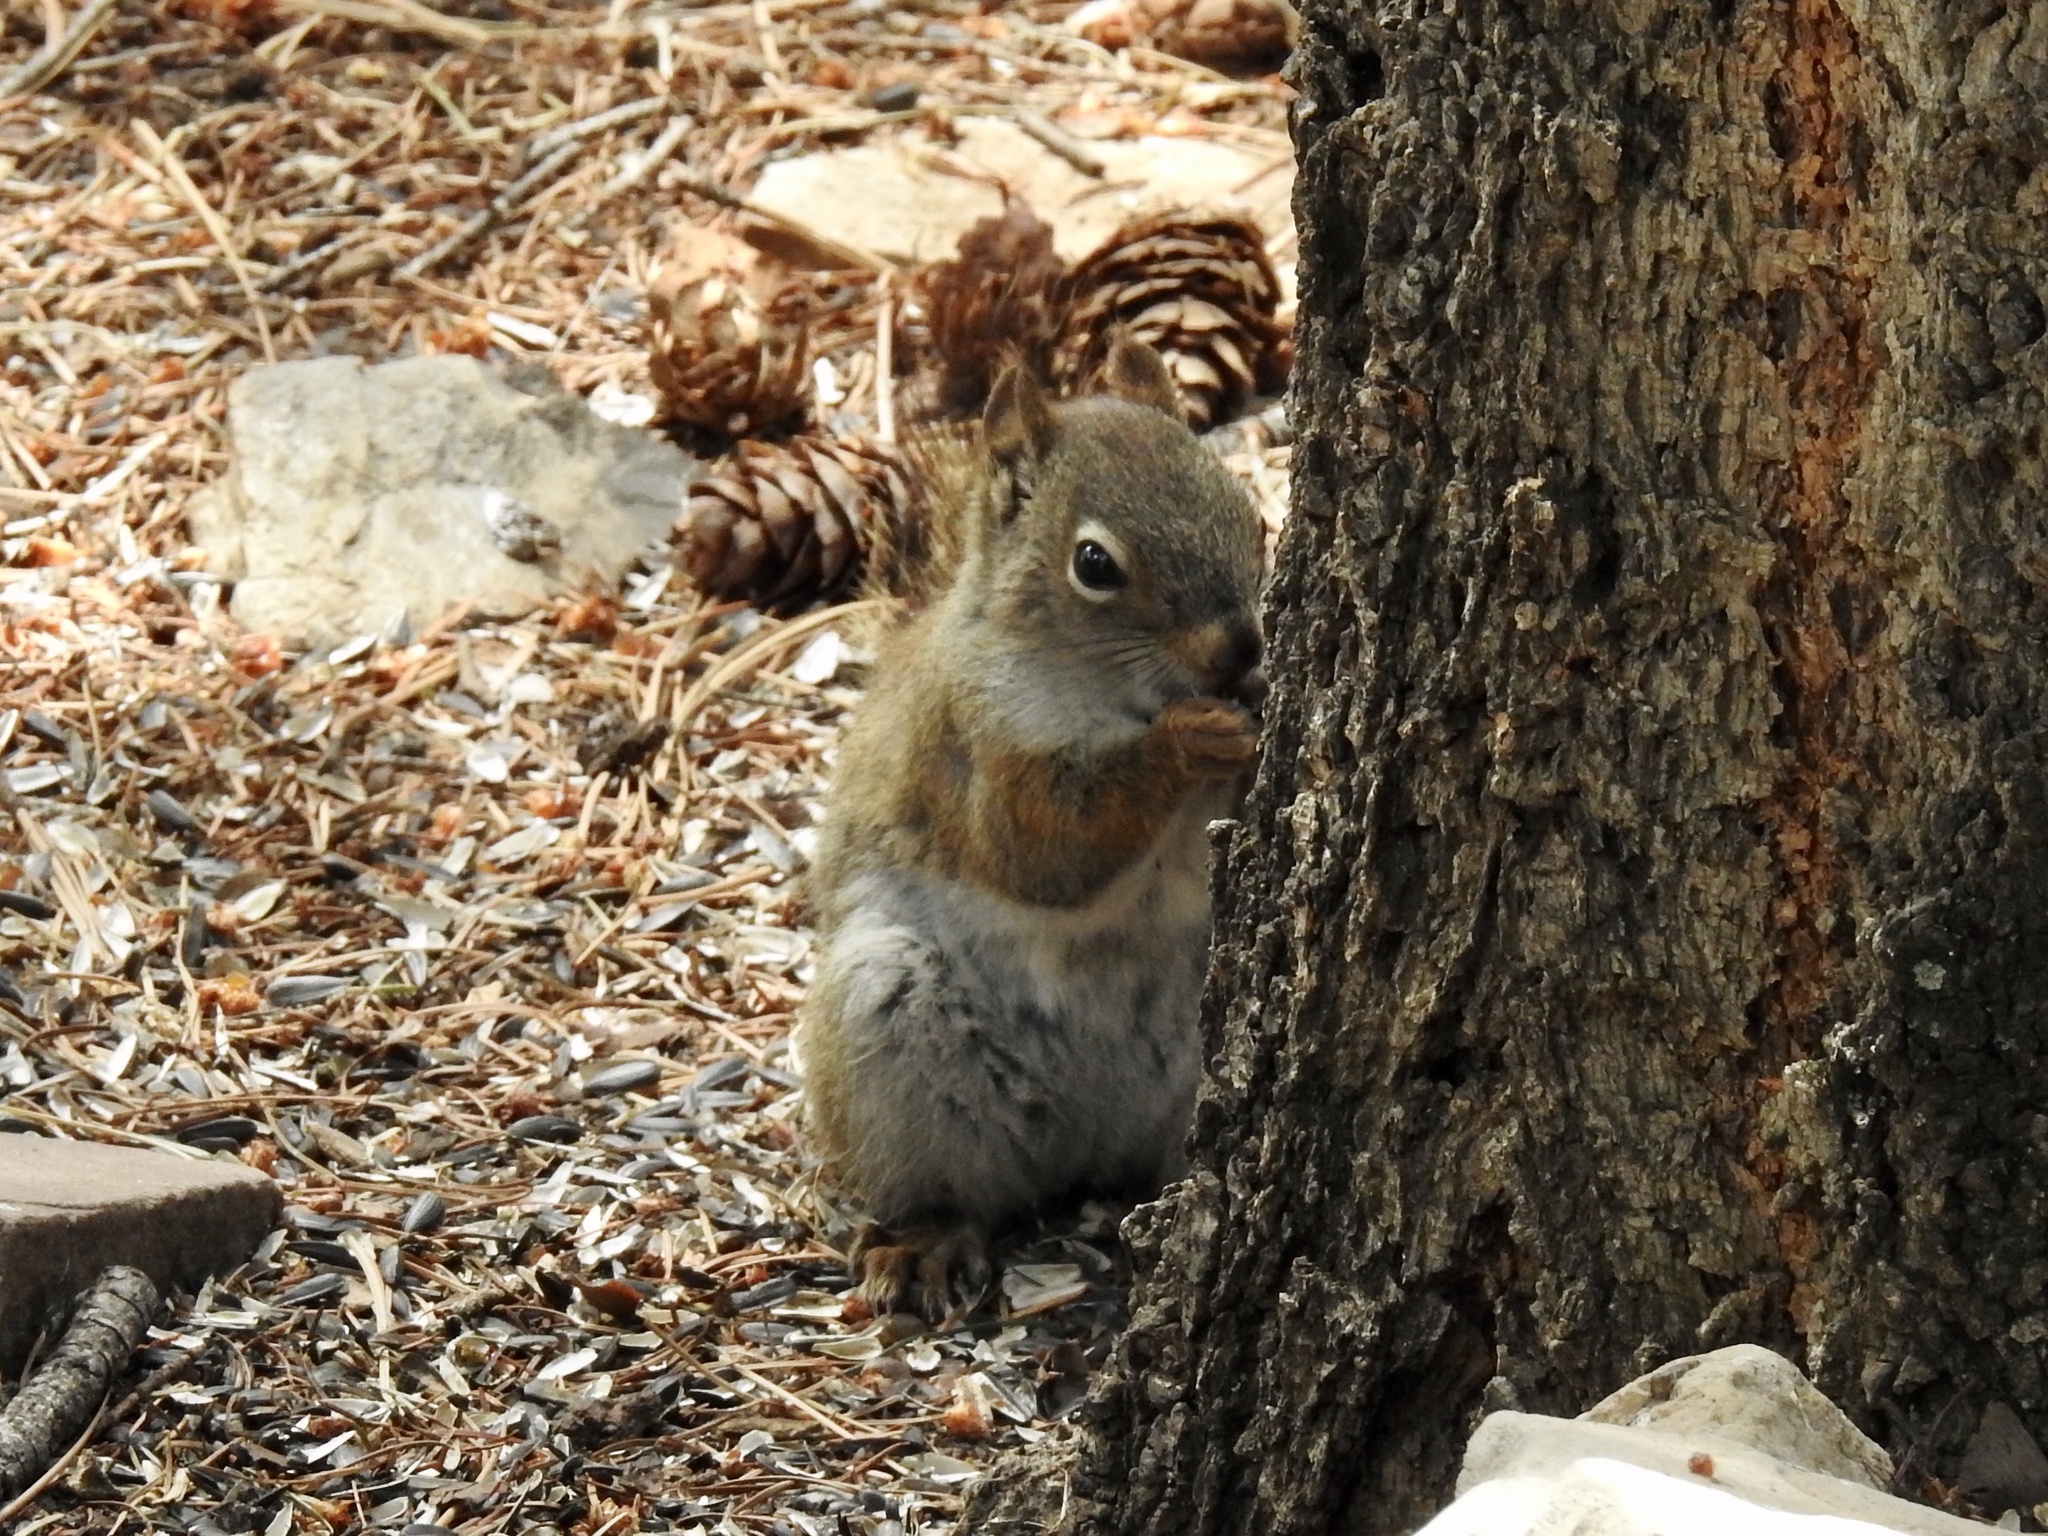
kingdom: Animalia
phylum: Chordata
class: Mammalia
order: Rodentia
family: Sciuridae
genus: Tamiasciurus
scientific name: Tamiasciurus hudsonicus
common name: Red squirrel
